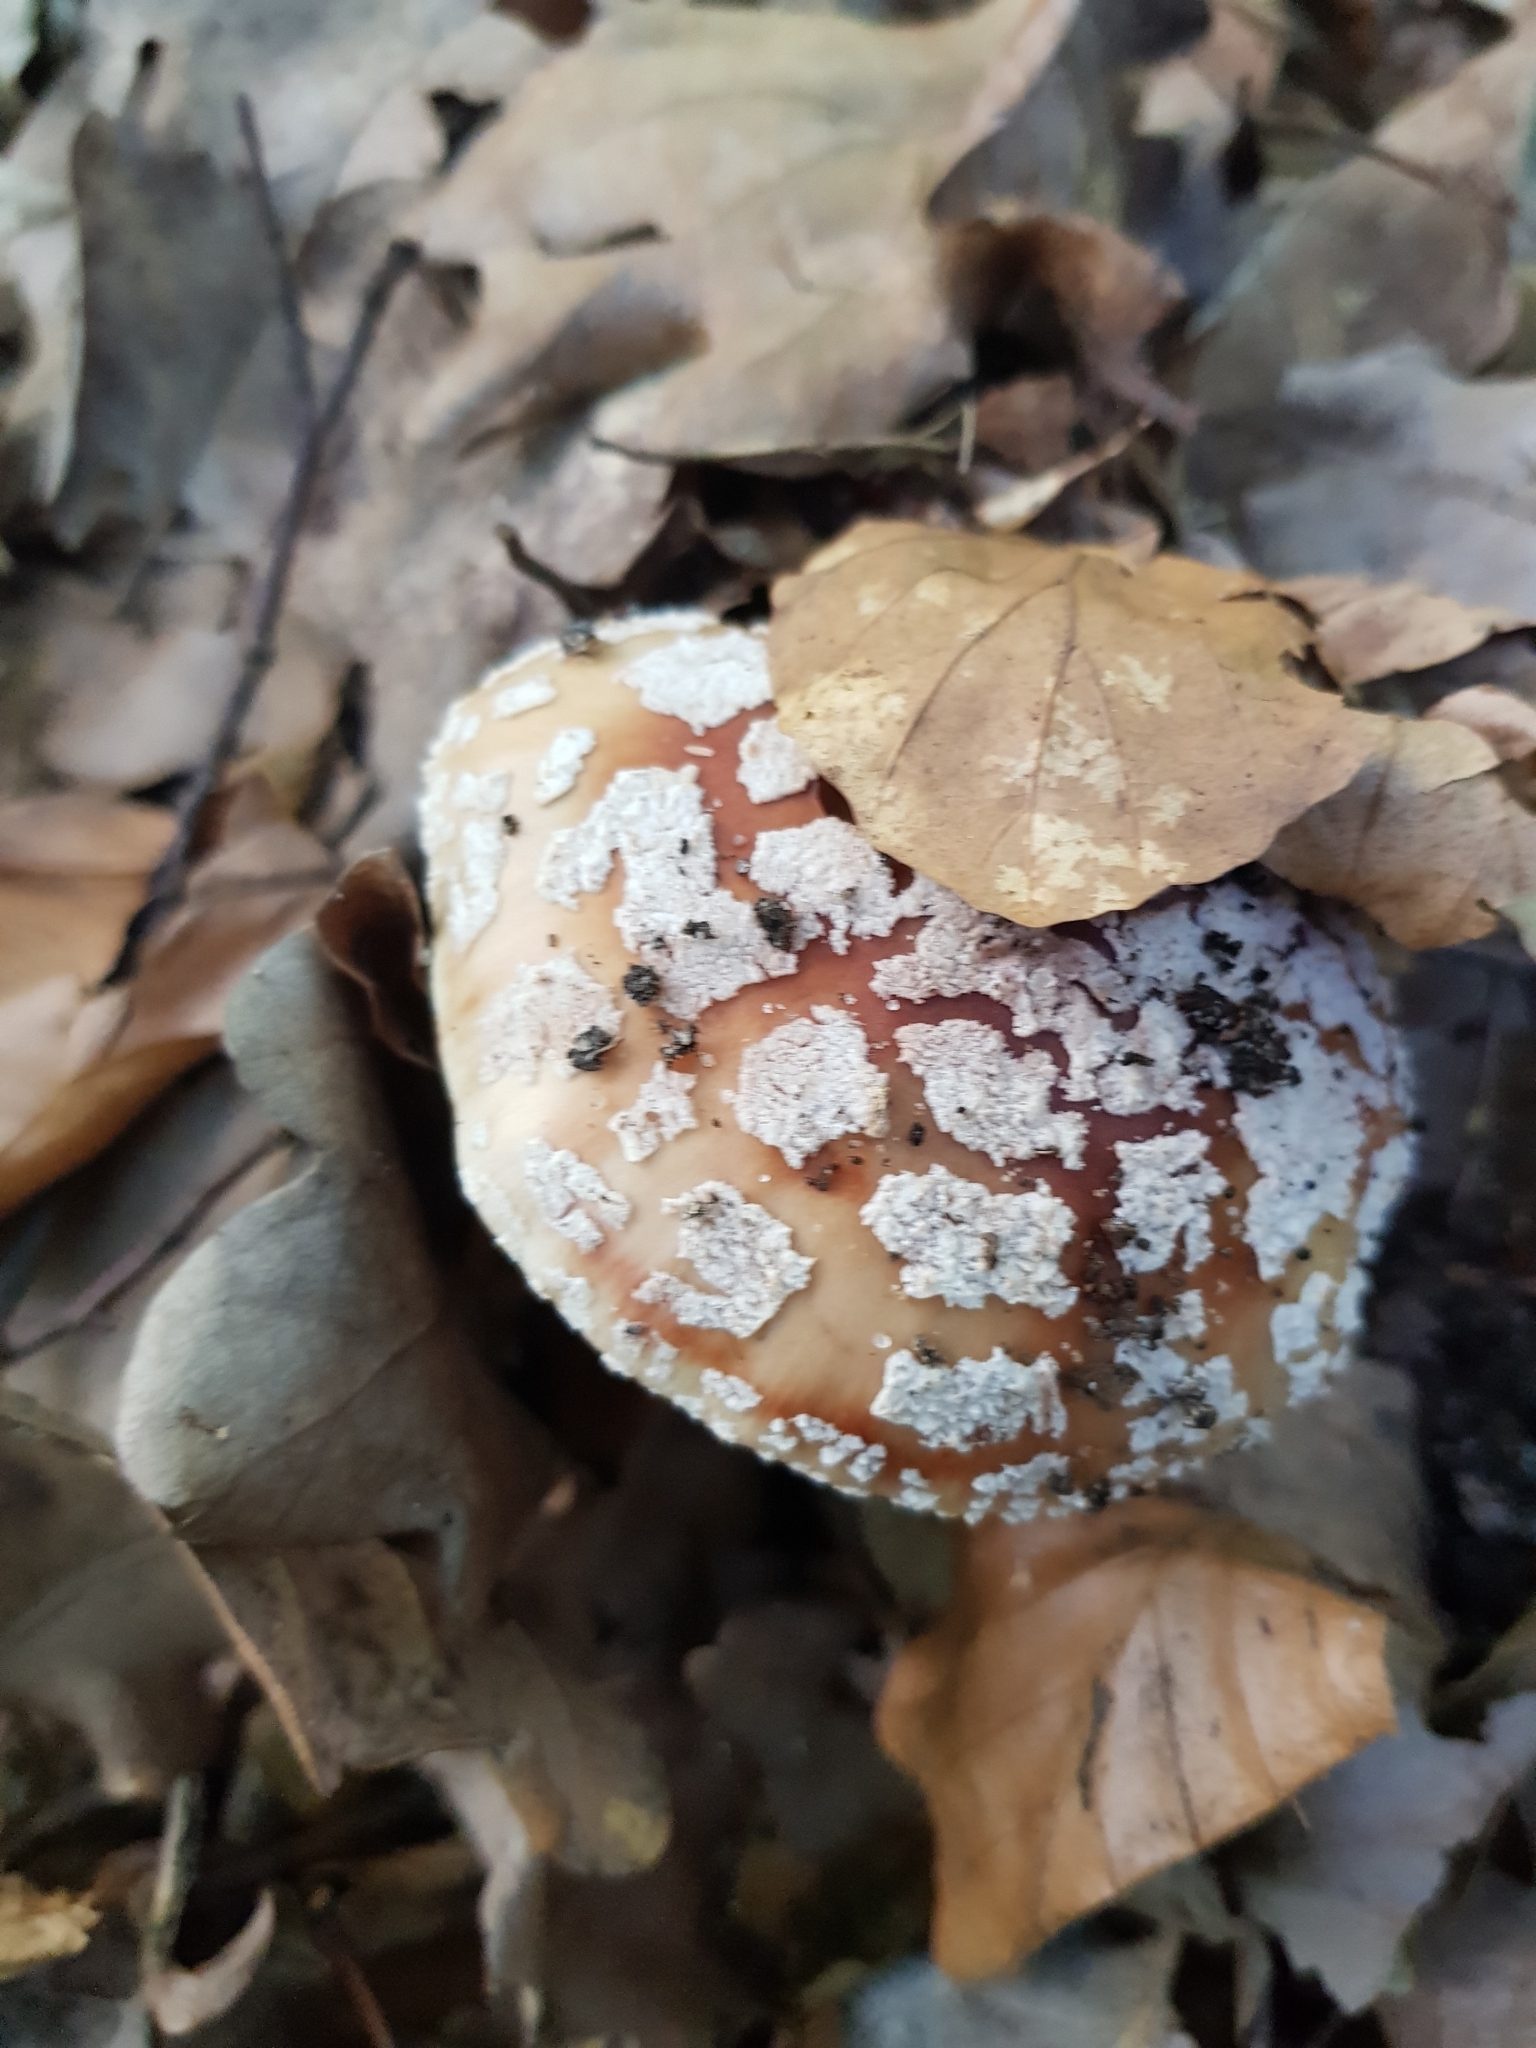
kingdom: Fungi
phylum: Basidiomycota
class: Agaricomycetes
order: Agaricales
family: Amanitaceae
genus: Amanita
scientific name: Amanita rubescens
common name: Blusher
